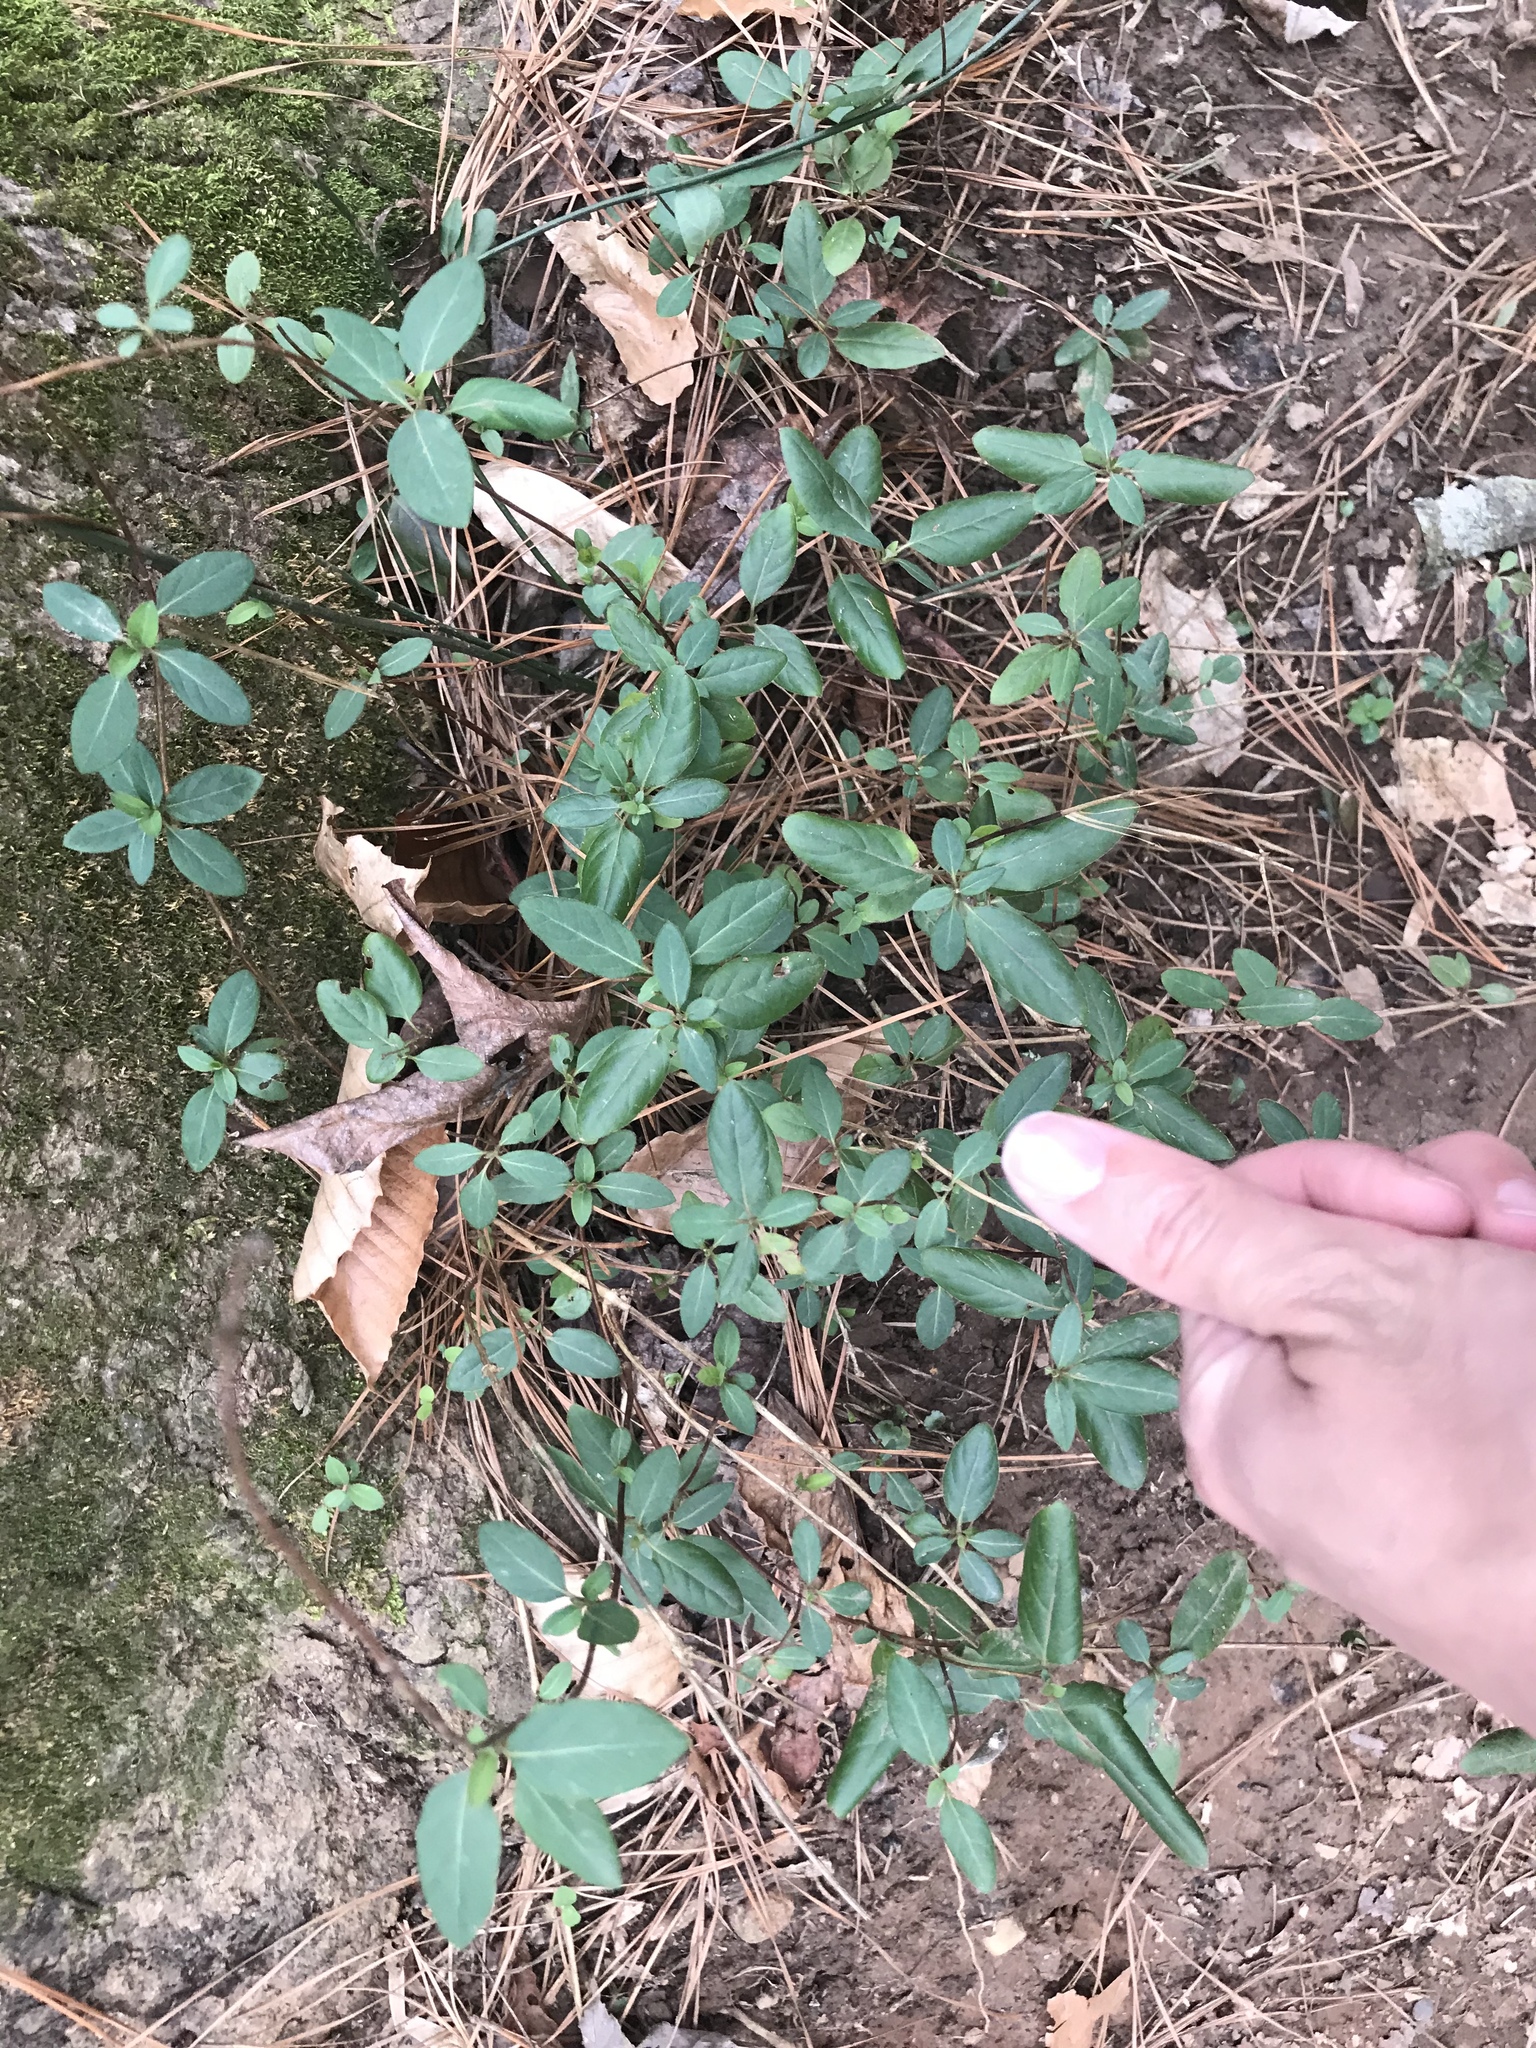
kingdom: Plantae
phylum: Tracheophyta
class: Magnoliopsida
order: Dipsacales
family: Caprifoliaceae
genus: Lonicera
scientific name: Lonicera japonica
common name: Japanese honeysuckle
